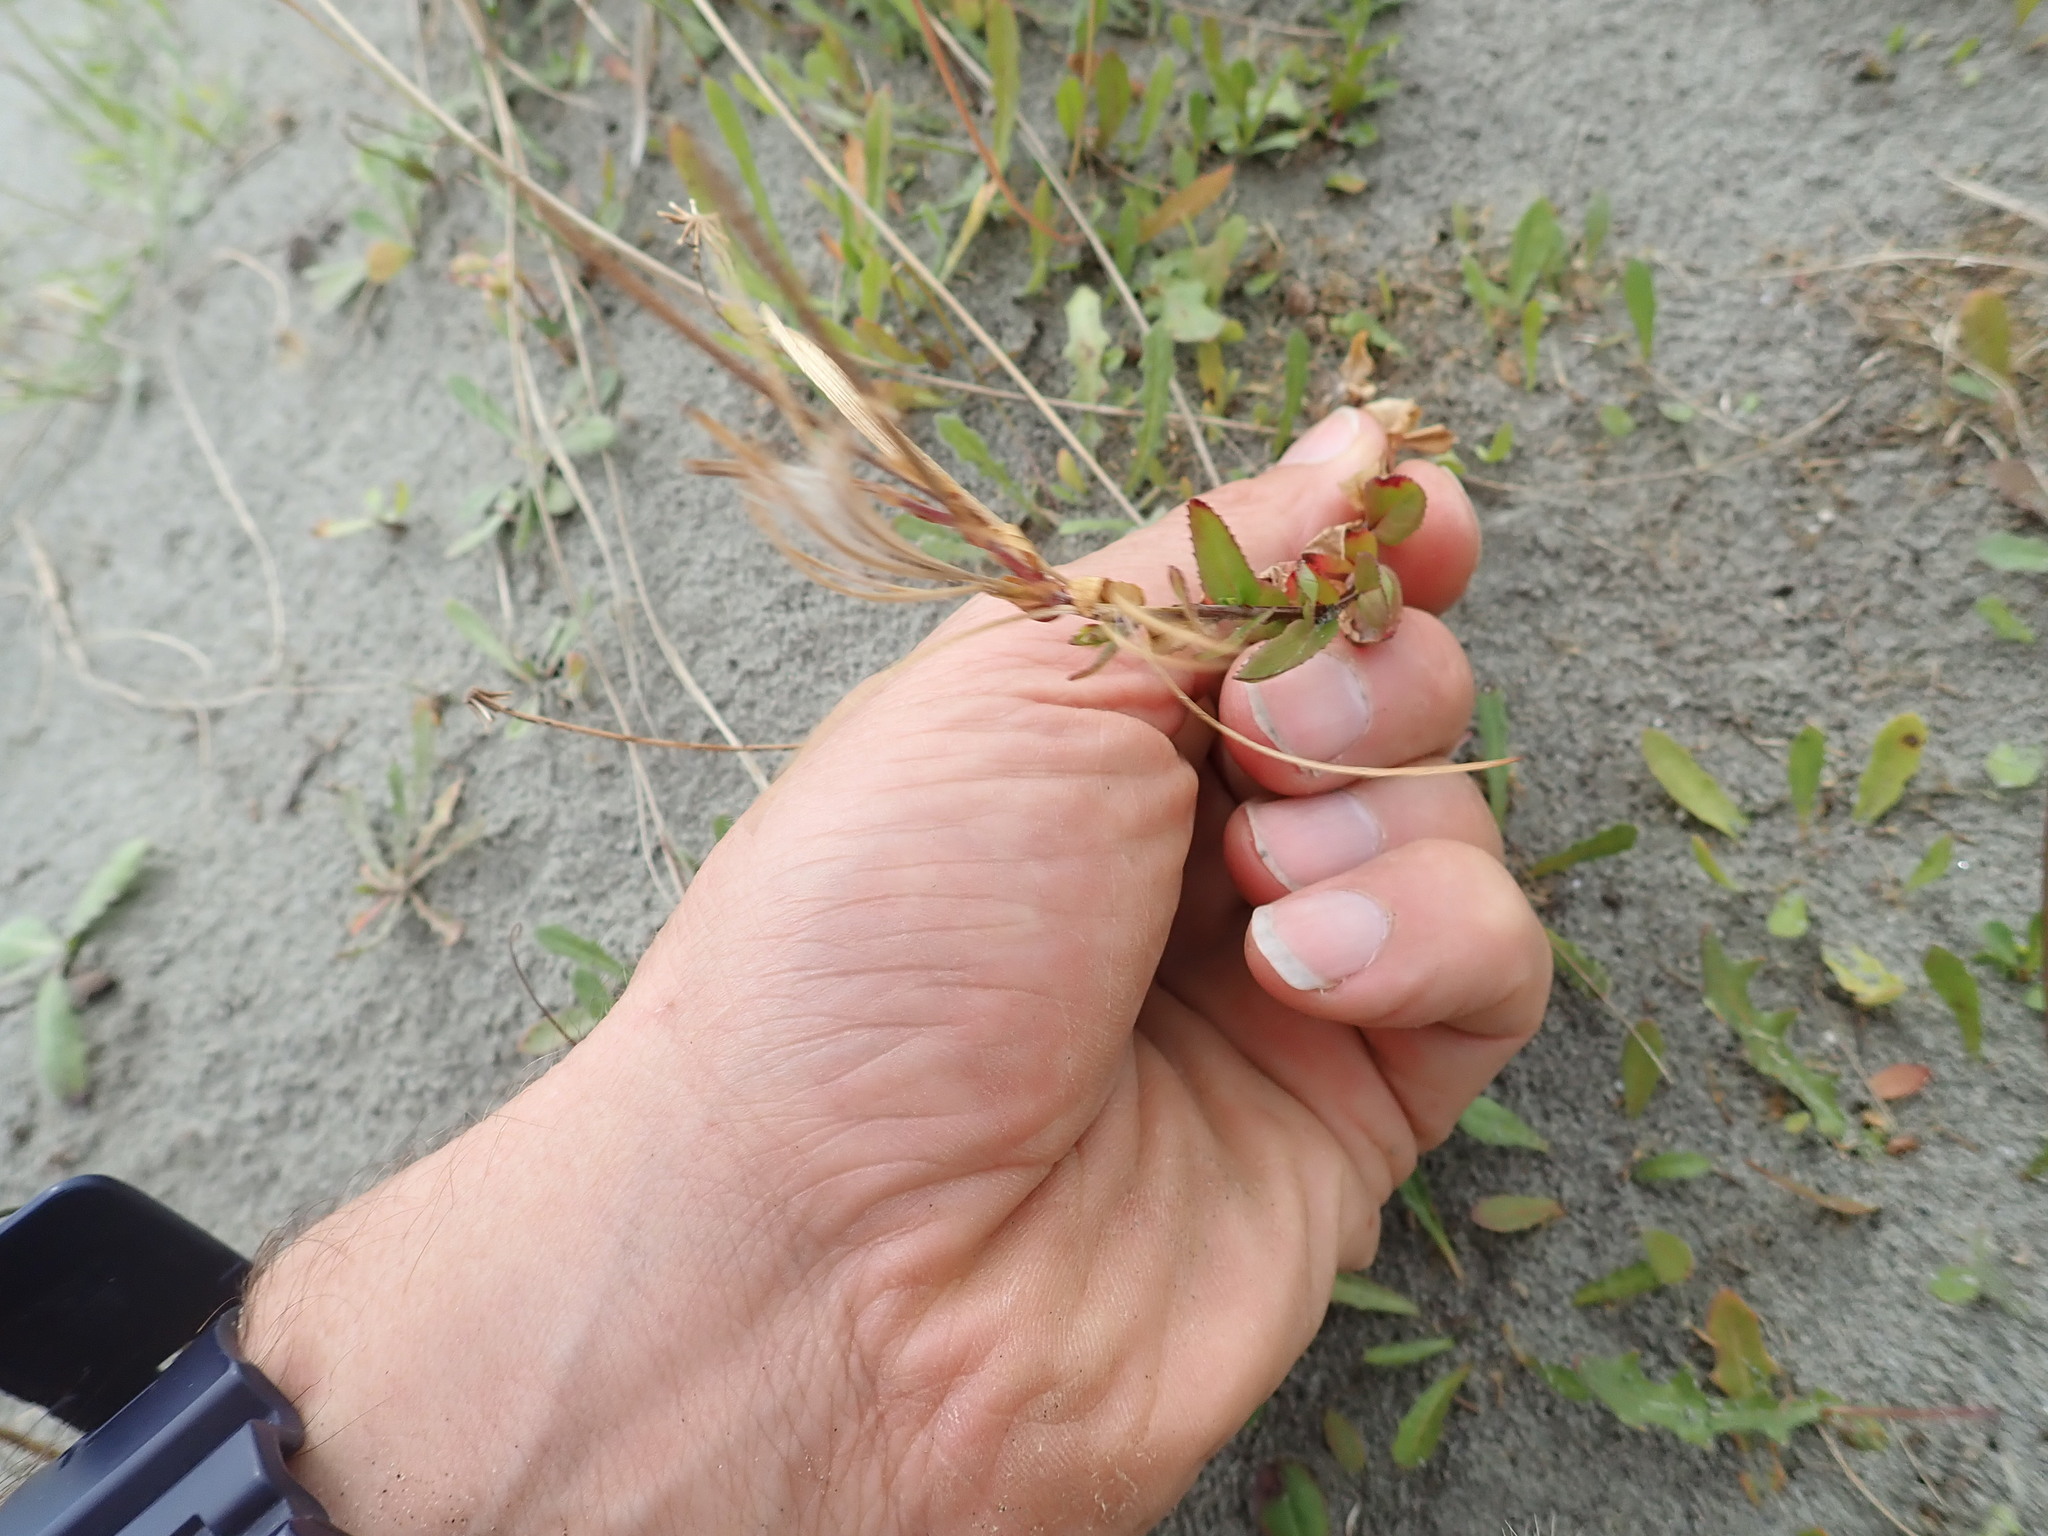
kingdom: Plantae
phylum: Tracheophyta
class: Magnoliopsida
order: Myrtales
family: Onagraceae
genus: Epilobium
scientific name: Epilobium billardiereanum
